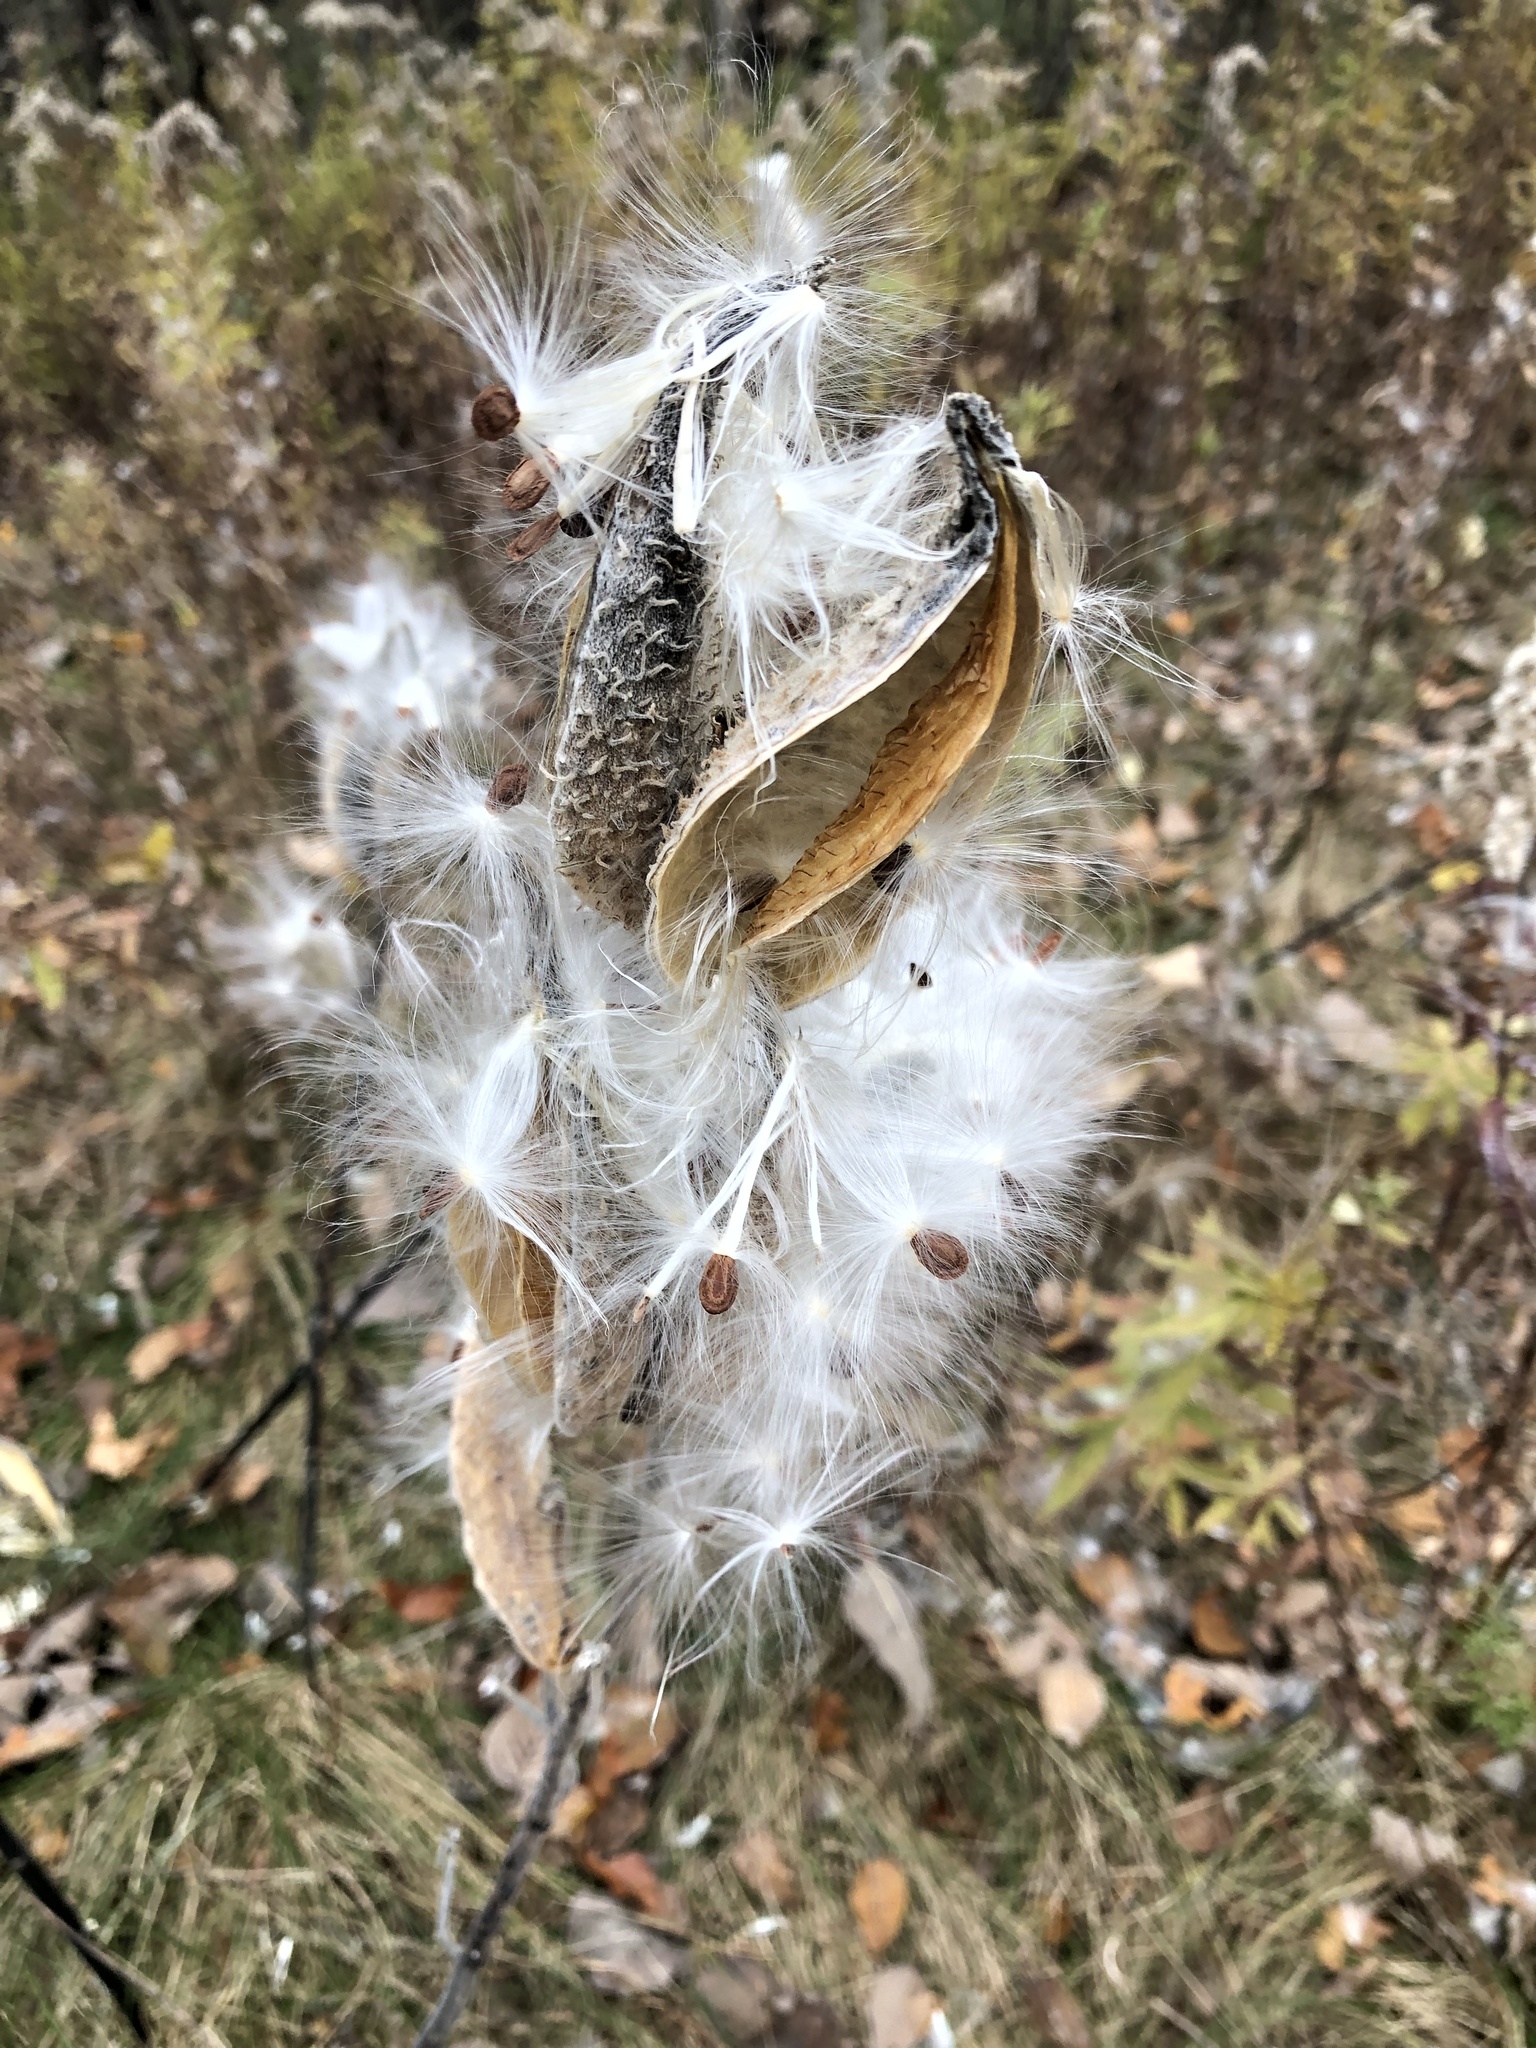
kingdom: Plantae
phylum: Tracheophyta
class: Magnoliopsida
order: Gentianales
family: Apocynaceae
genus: Asclepias
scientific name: Asclepias syriaca
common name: Common milkweed
